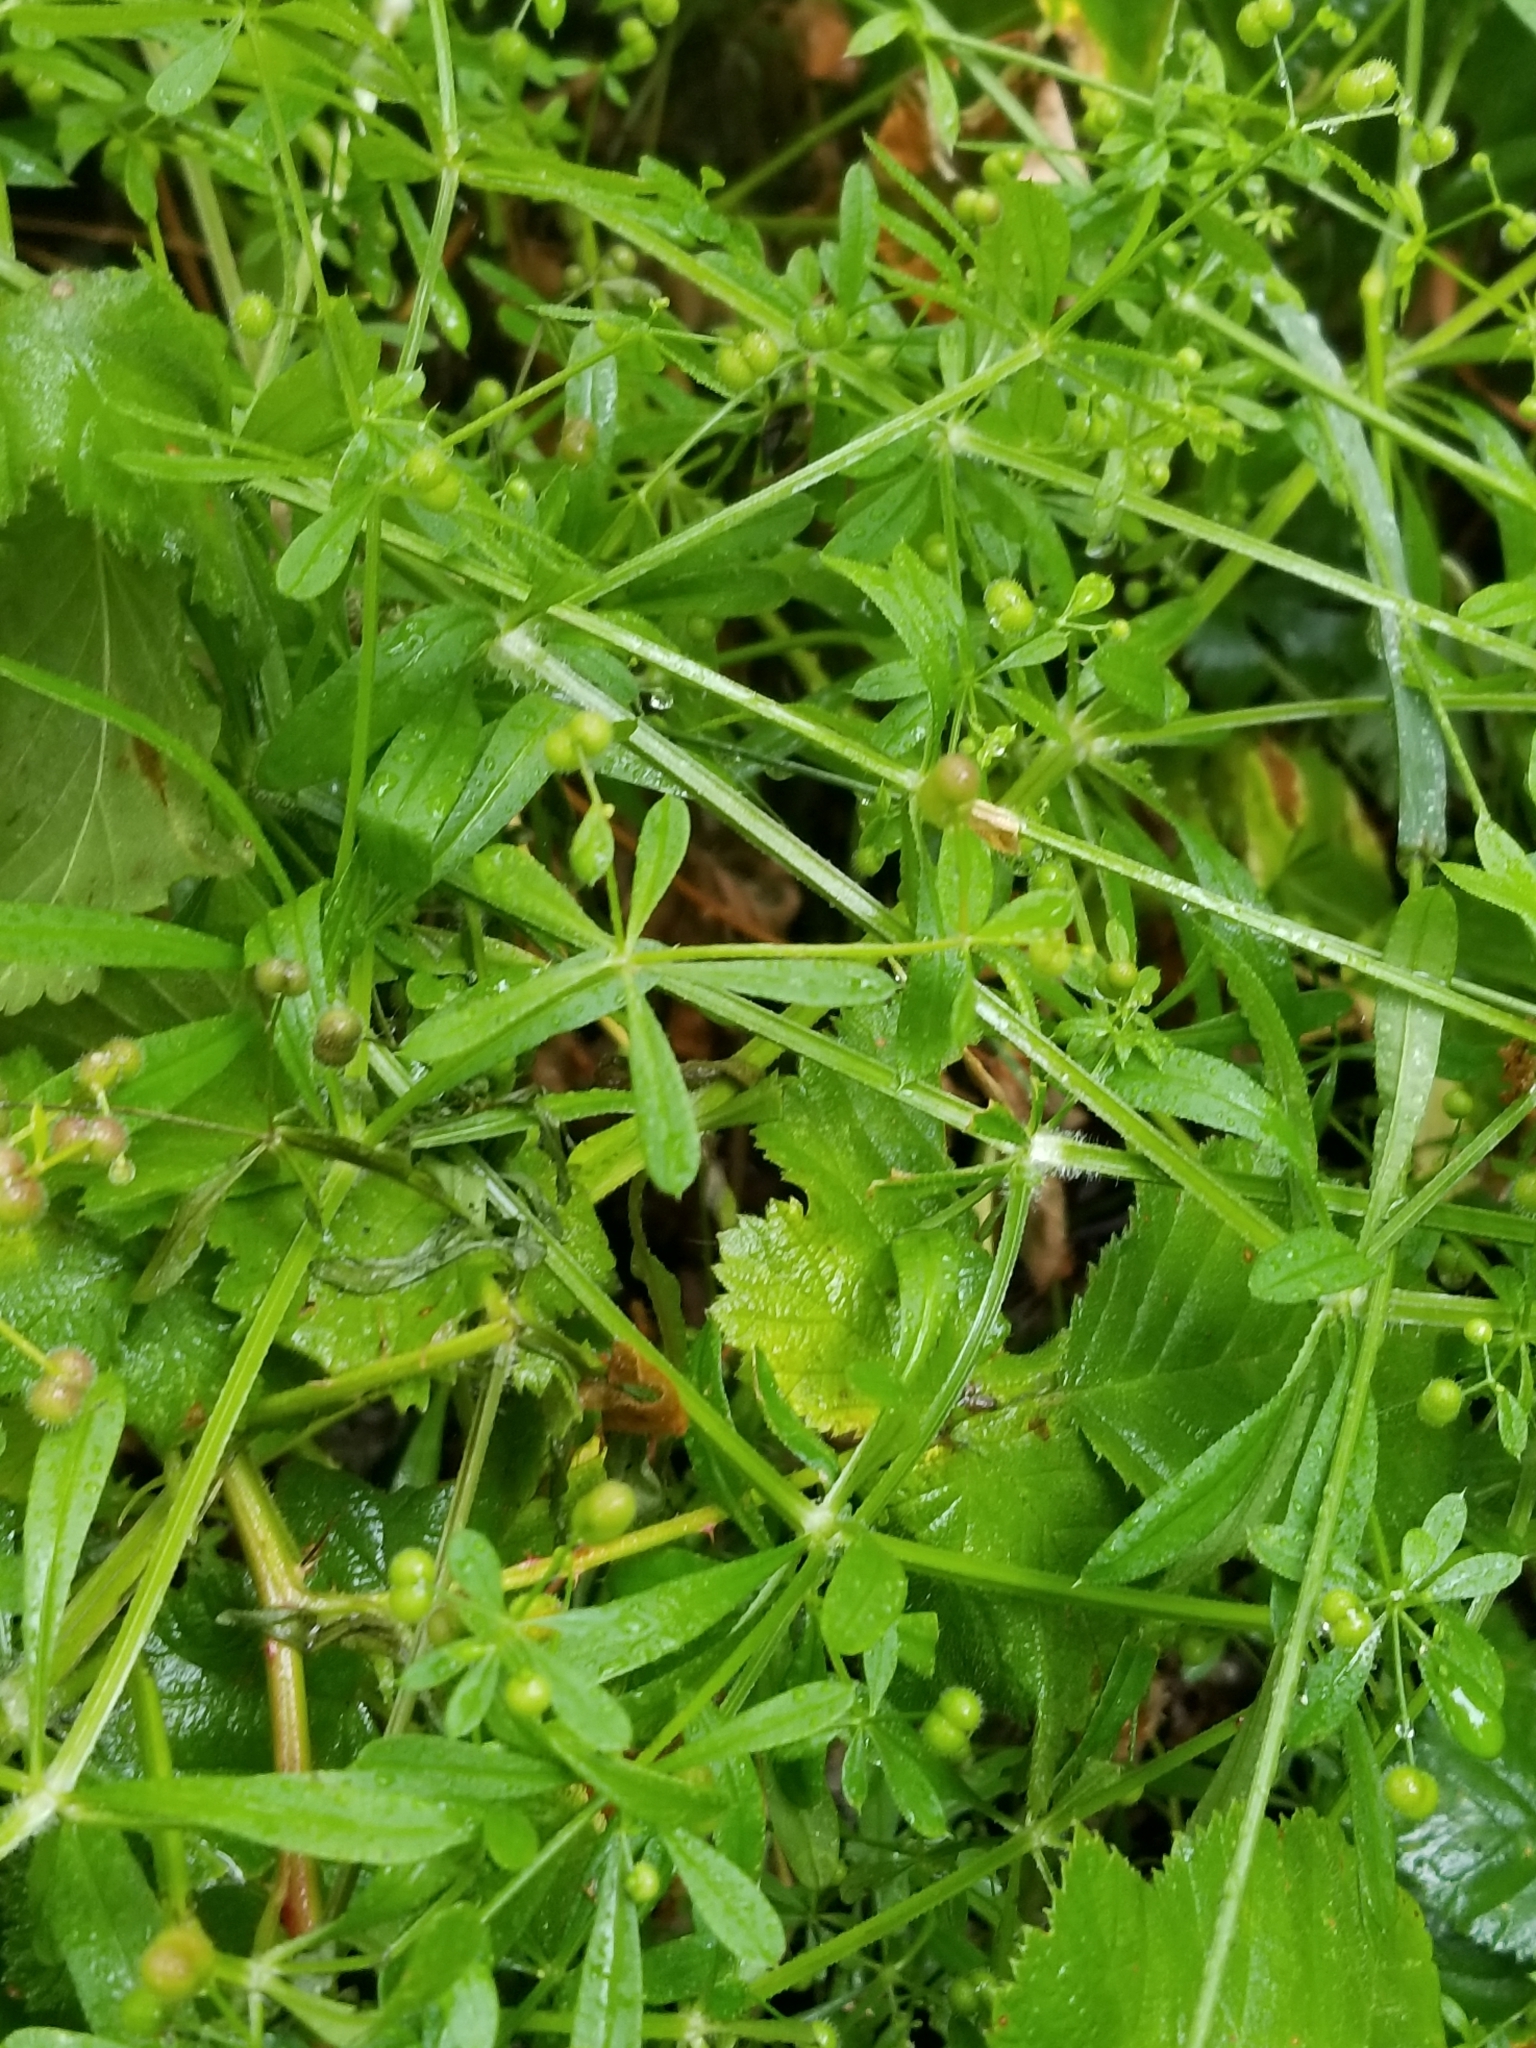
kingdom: Plantae
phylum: Tracheophyta
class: Magnoliopsida
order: Gentianales
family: Rubiaceae
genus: Galium
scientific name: Galium aparine
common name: Cleavers
